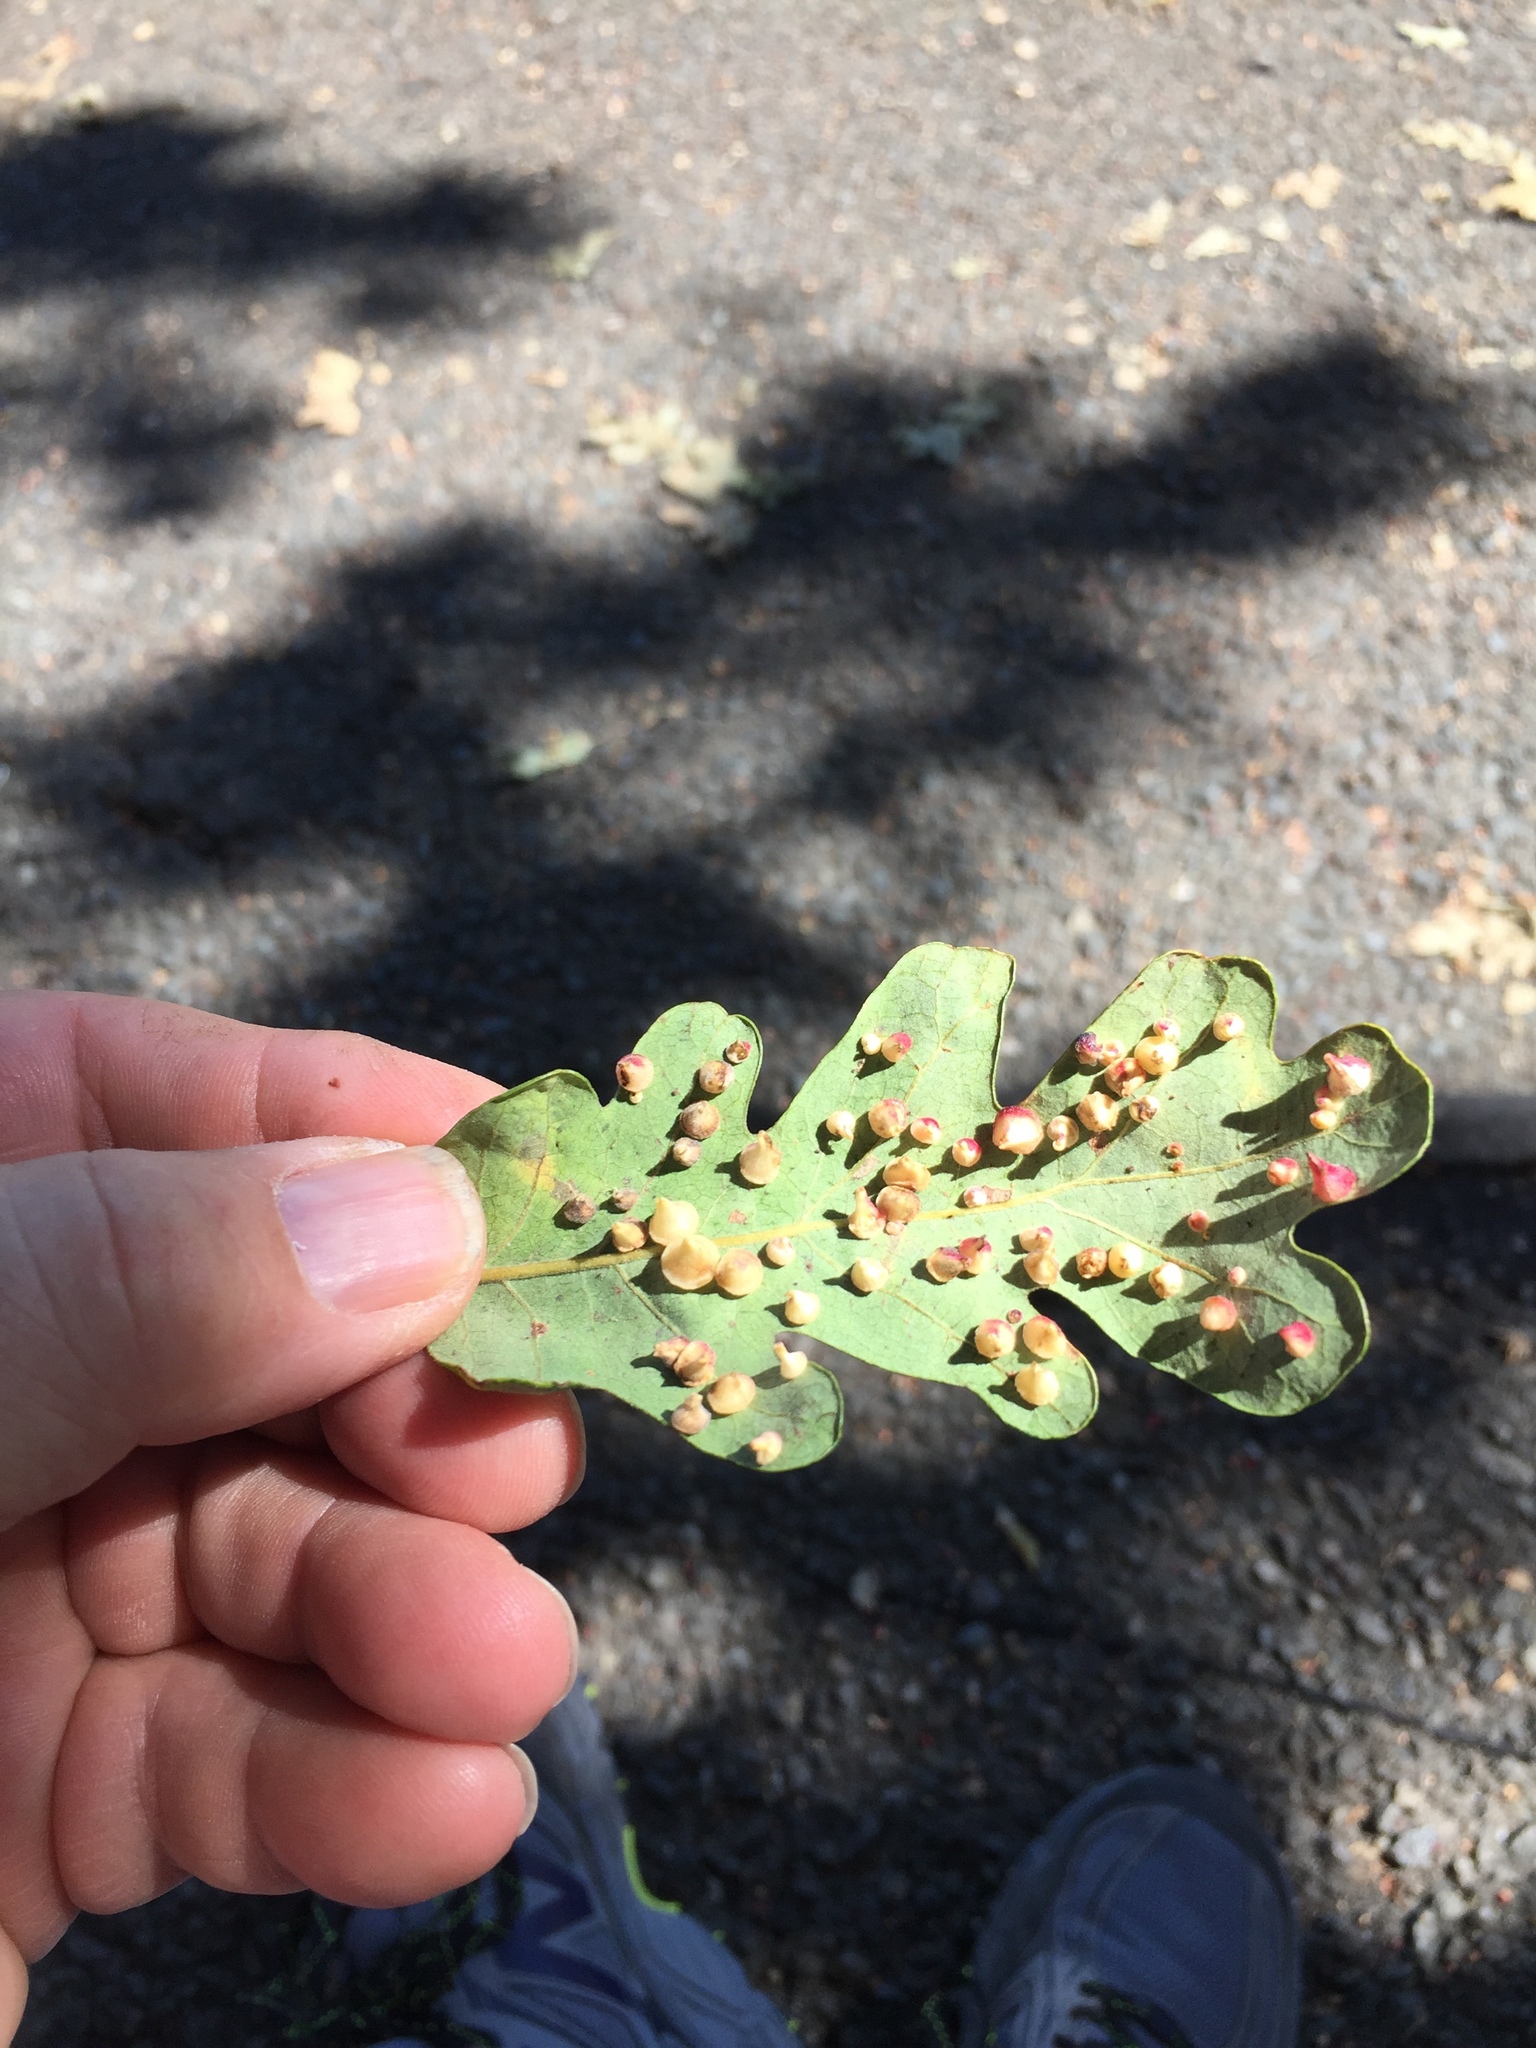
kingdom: Animalia
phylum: Arthropoda
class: Insecta
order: Hymenoptera
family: Cynipidae
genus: Andricus
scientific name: Andricus
